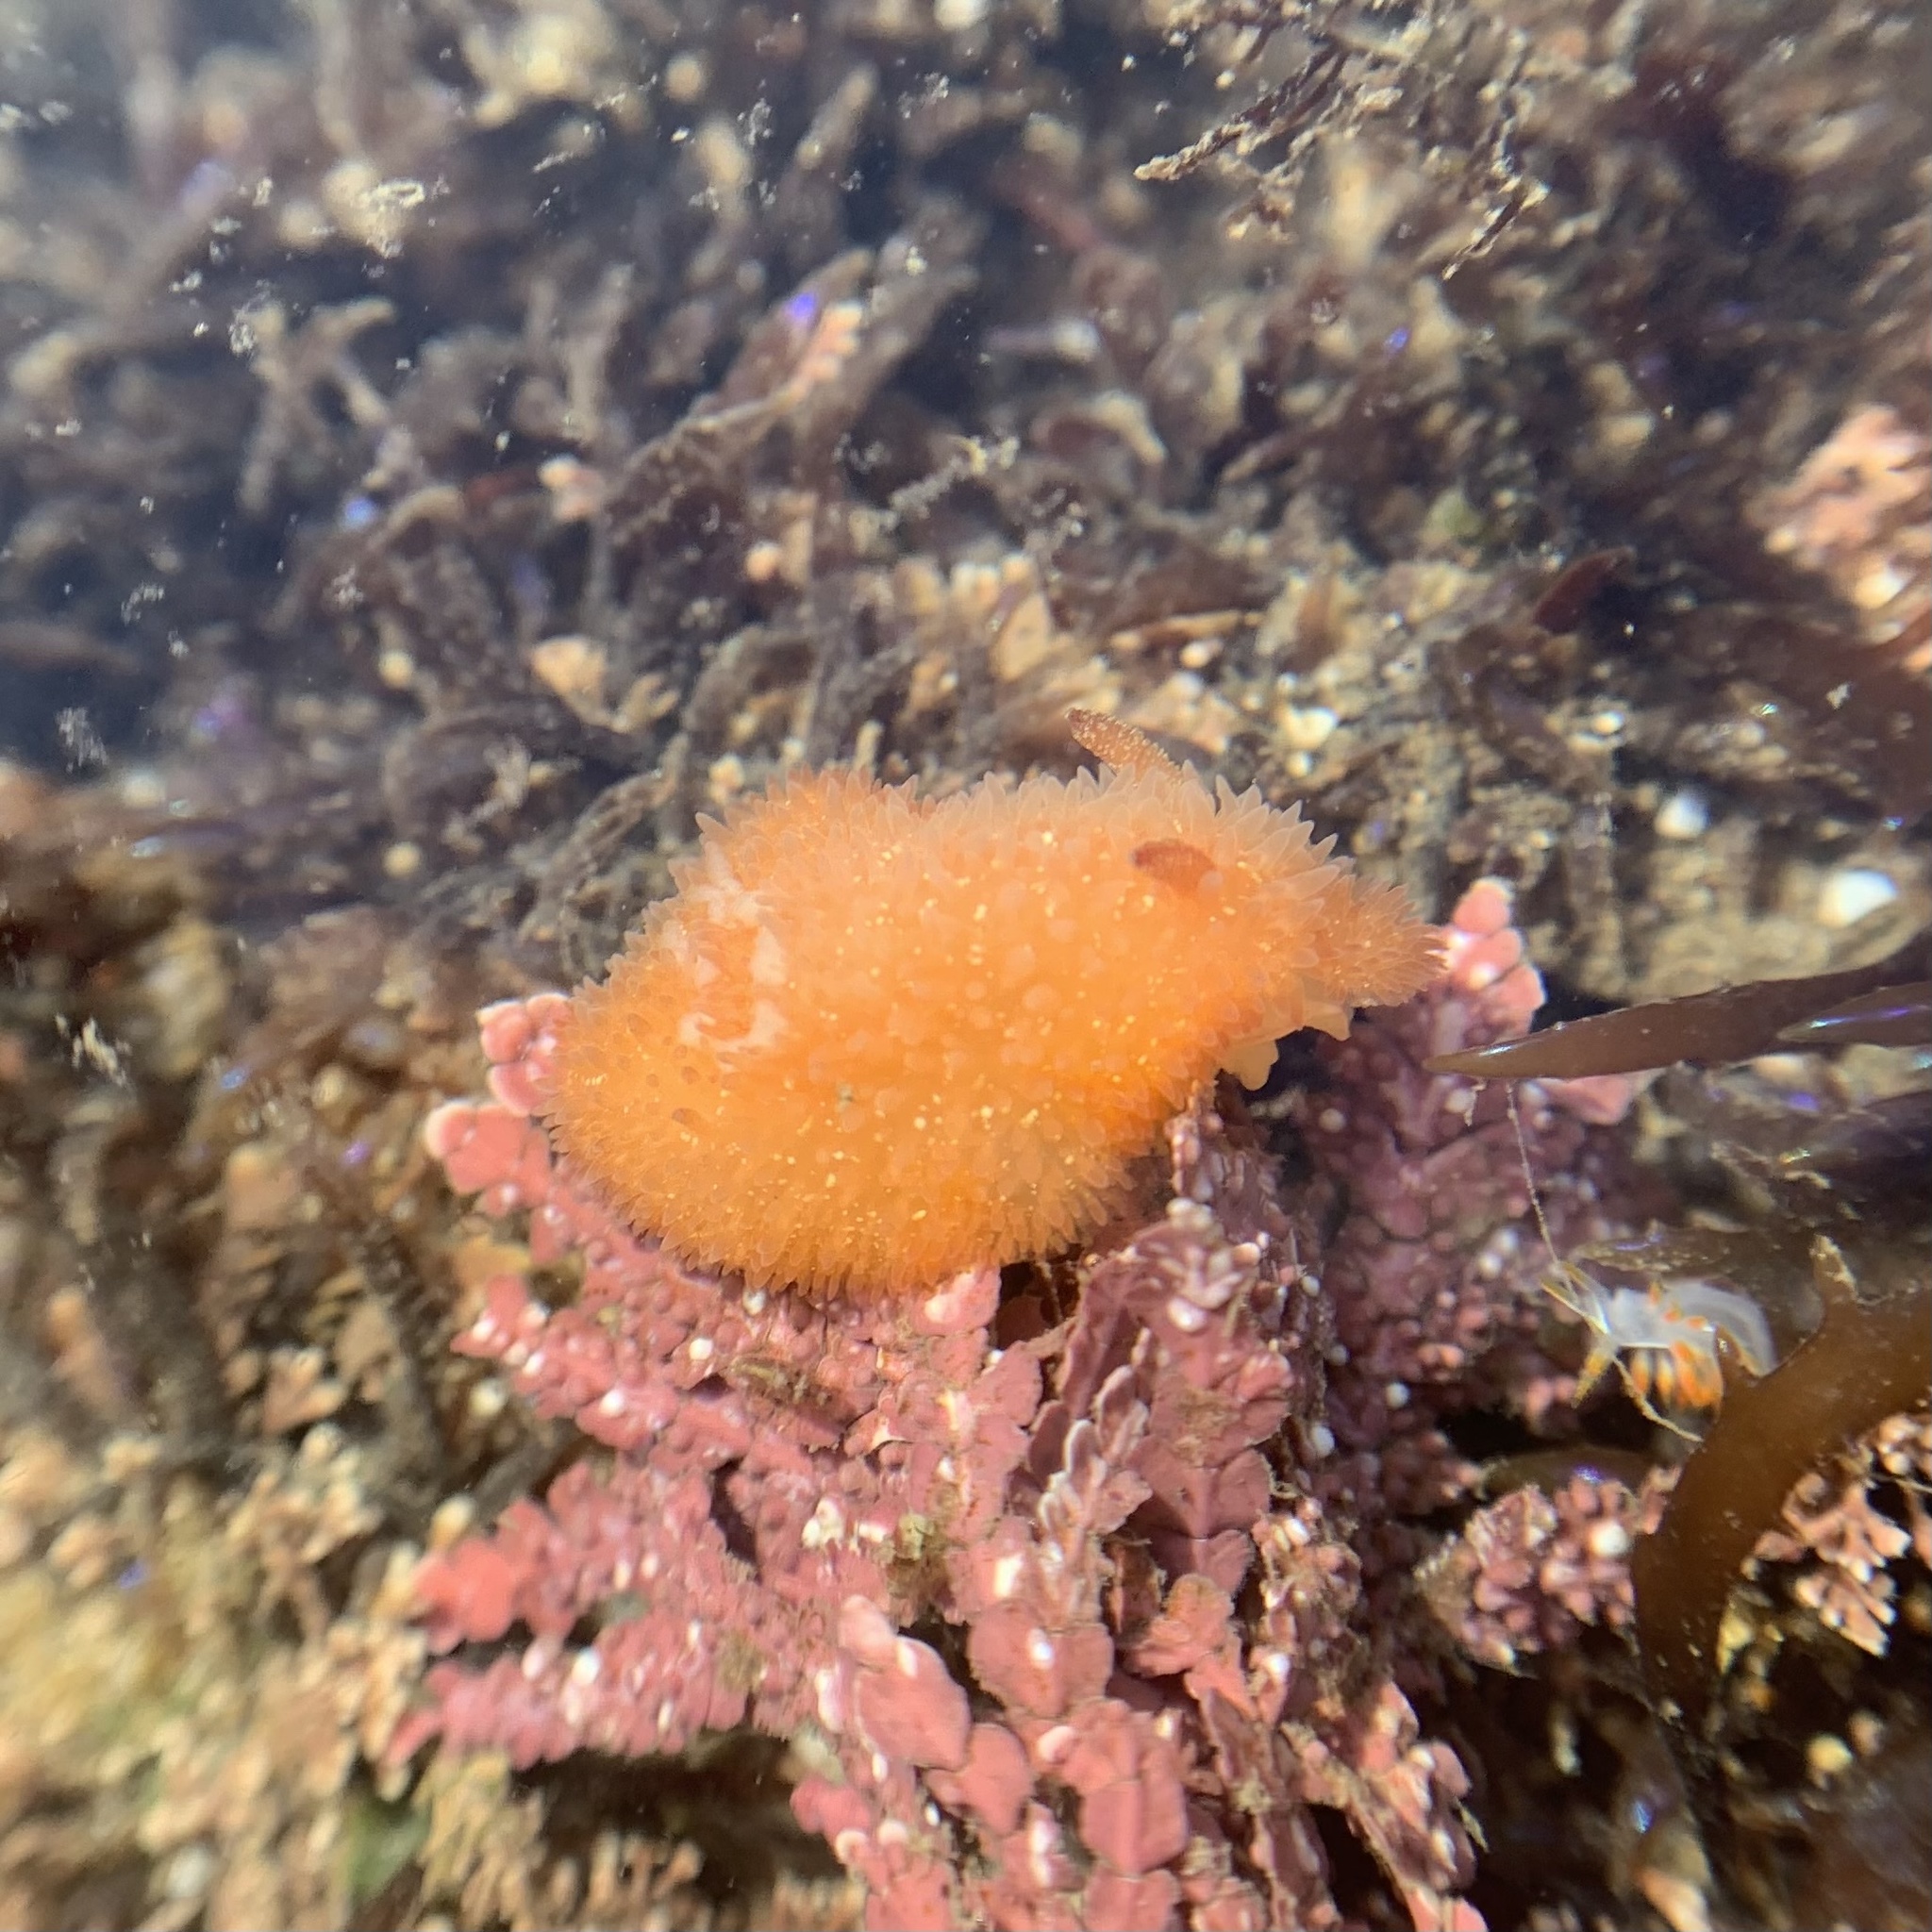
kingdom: Animalia
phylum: Mollusca
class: Gastropoda
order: Nudibranchia
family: Onchidorididae
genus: Acanthodoris
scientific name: Acanthodoris lutea
